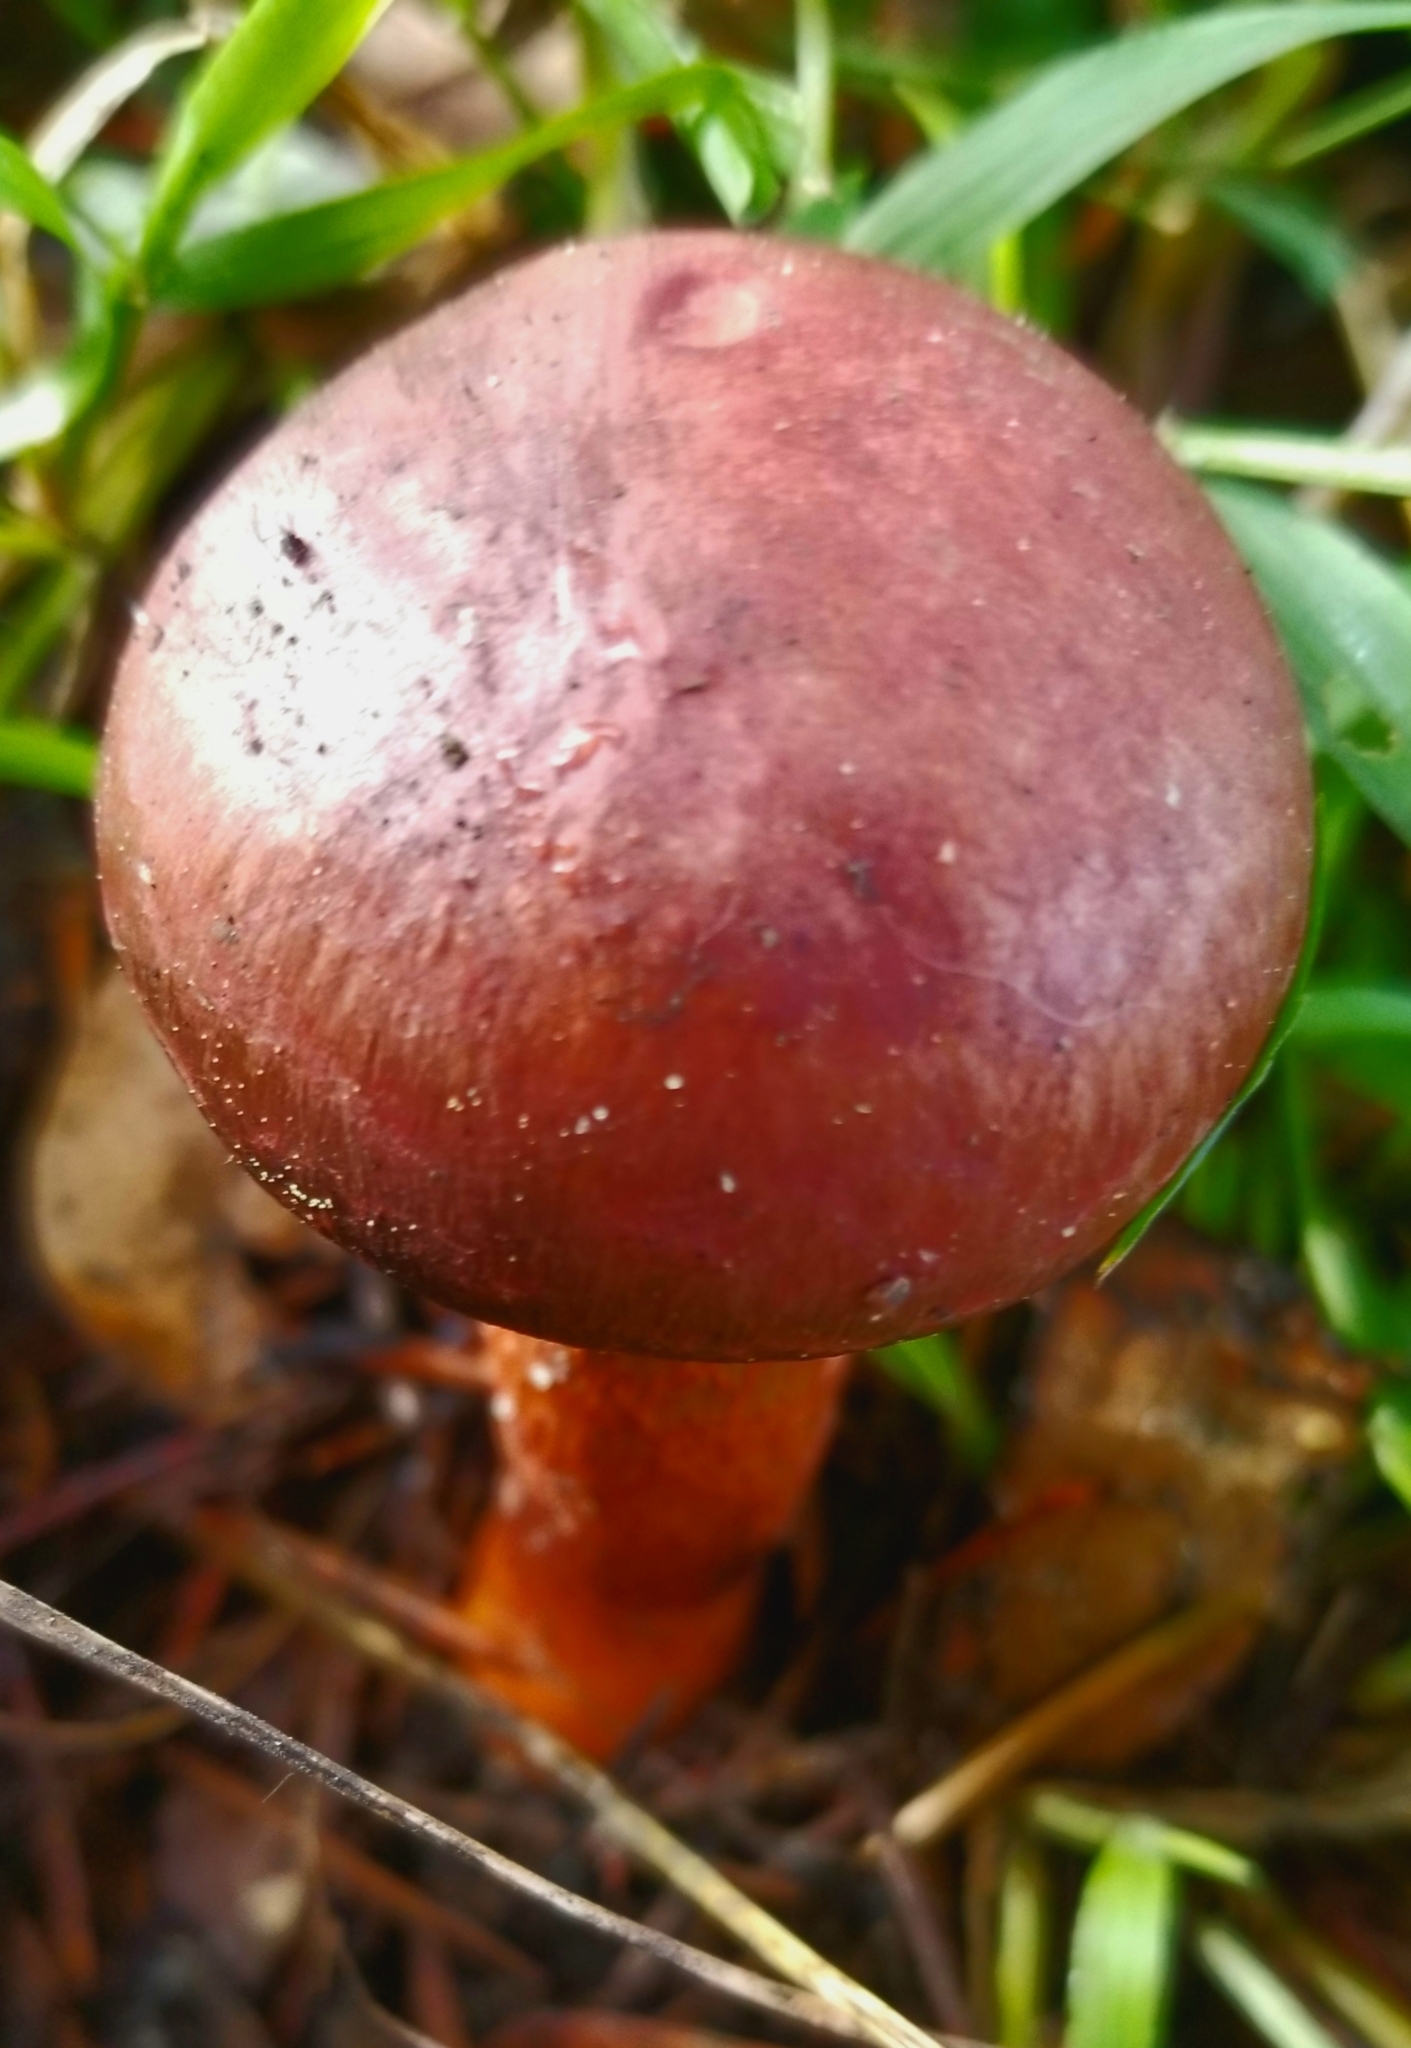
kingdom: Fungi
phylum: Basidiomycota
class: Agaricomycetes
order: Boletales
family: Gomphidiaceae
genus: Chroogomphus
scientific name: Chroogomphus vinicolor
